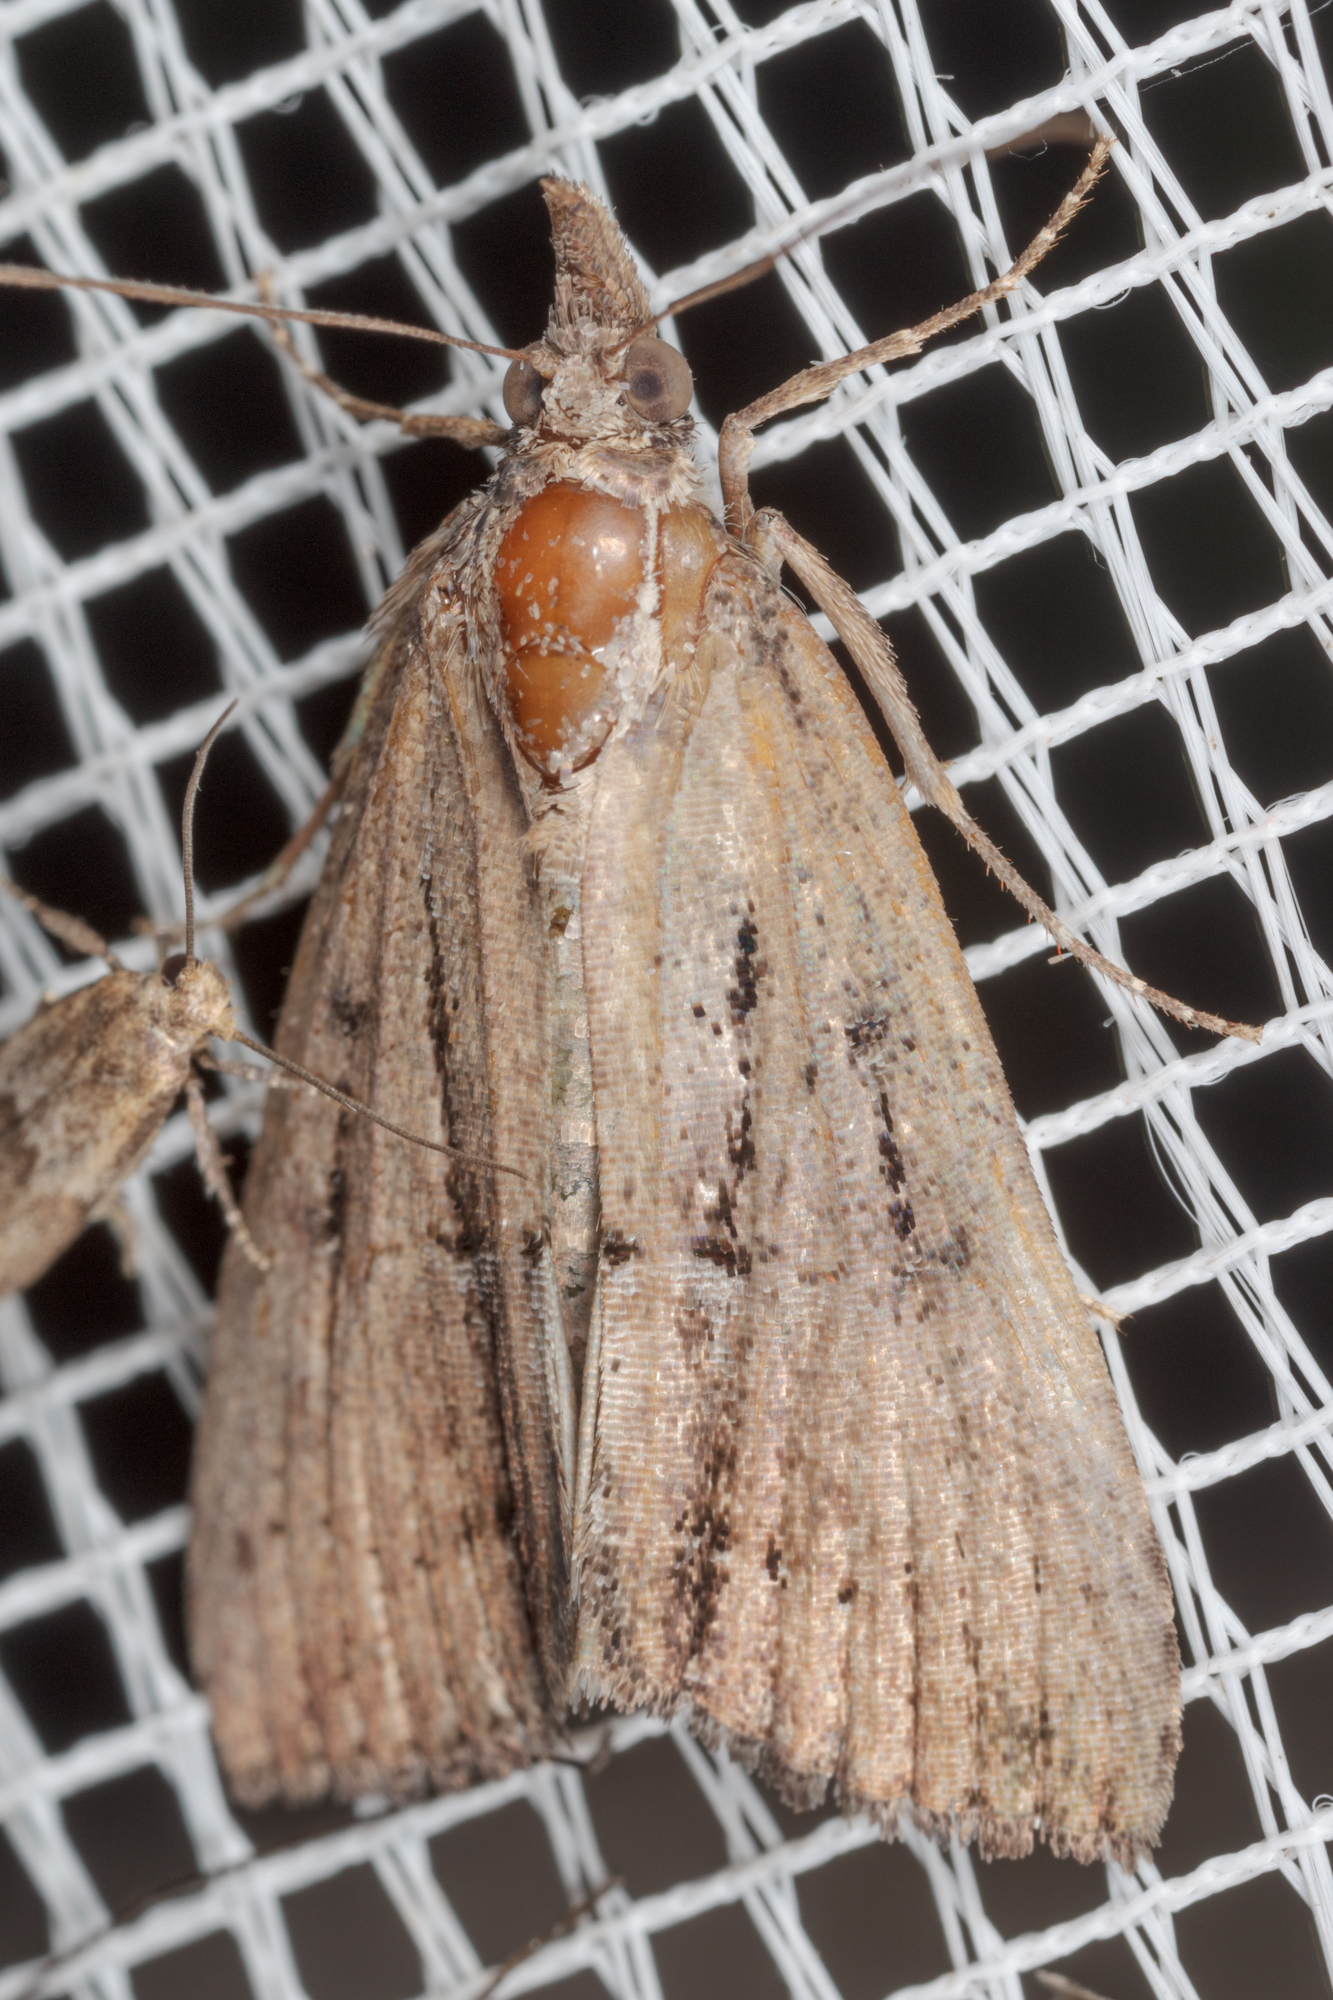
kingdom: Animalia
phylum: Arthropoda
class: Insecta
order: Lepidoptera
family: Erebidae
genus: Hypena
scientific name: Hypena scabra
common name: Green cloverworm
